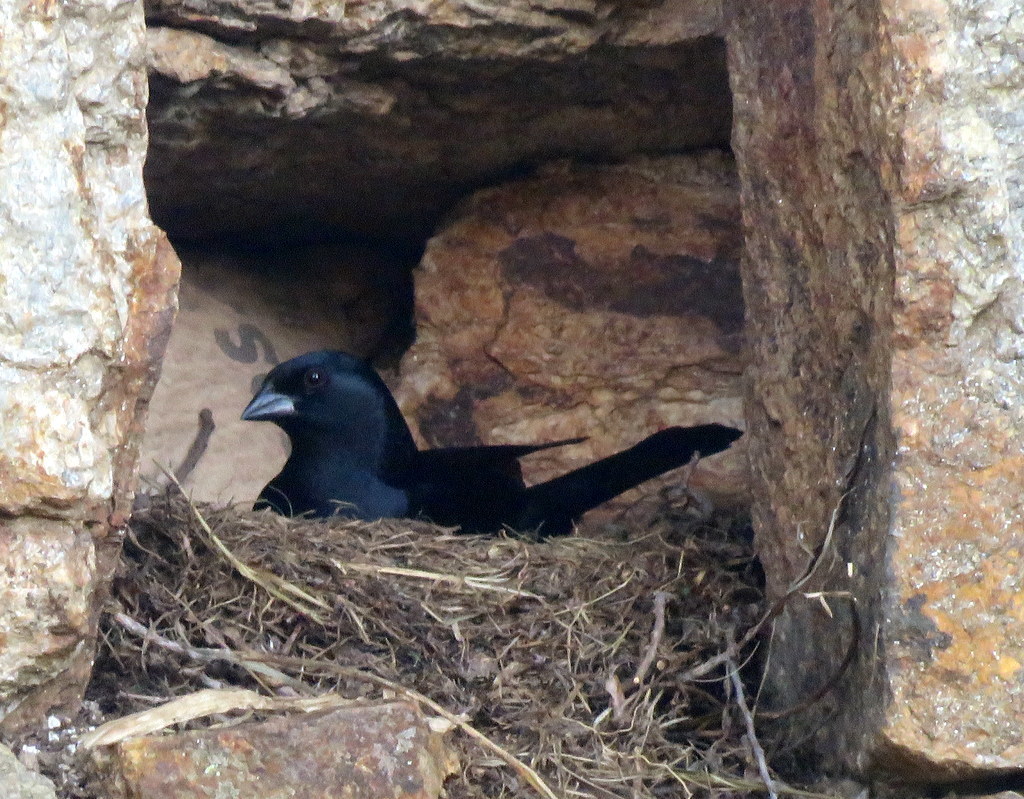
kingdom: Animalia
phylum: Chordata
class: Aves
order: Passeriformes
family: Icteridae
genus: Molothrus
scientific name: Molothrus rufoaxillaris
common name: Screaming cowbird
